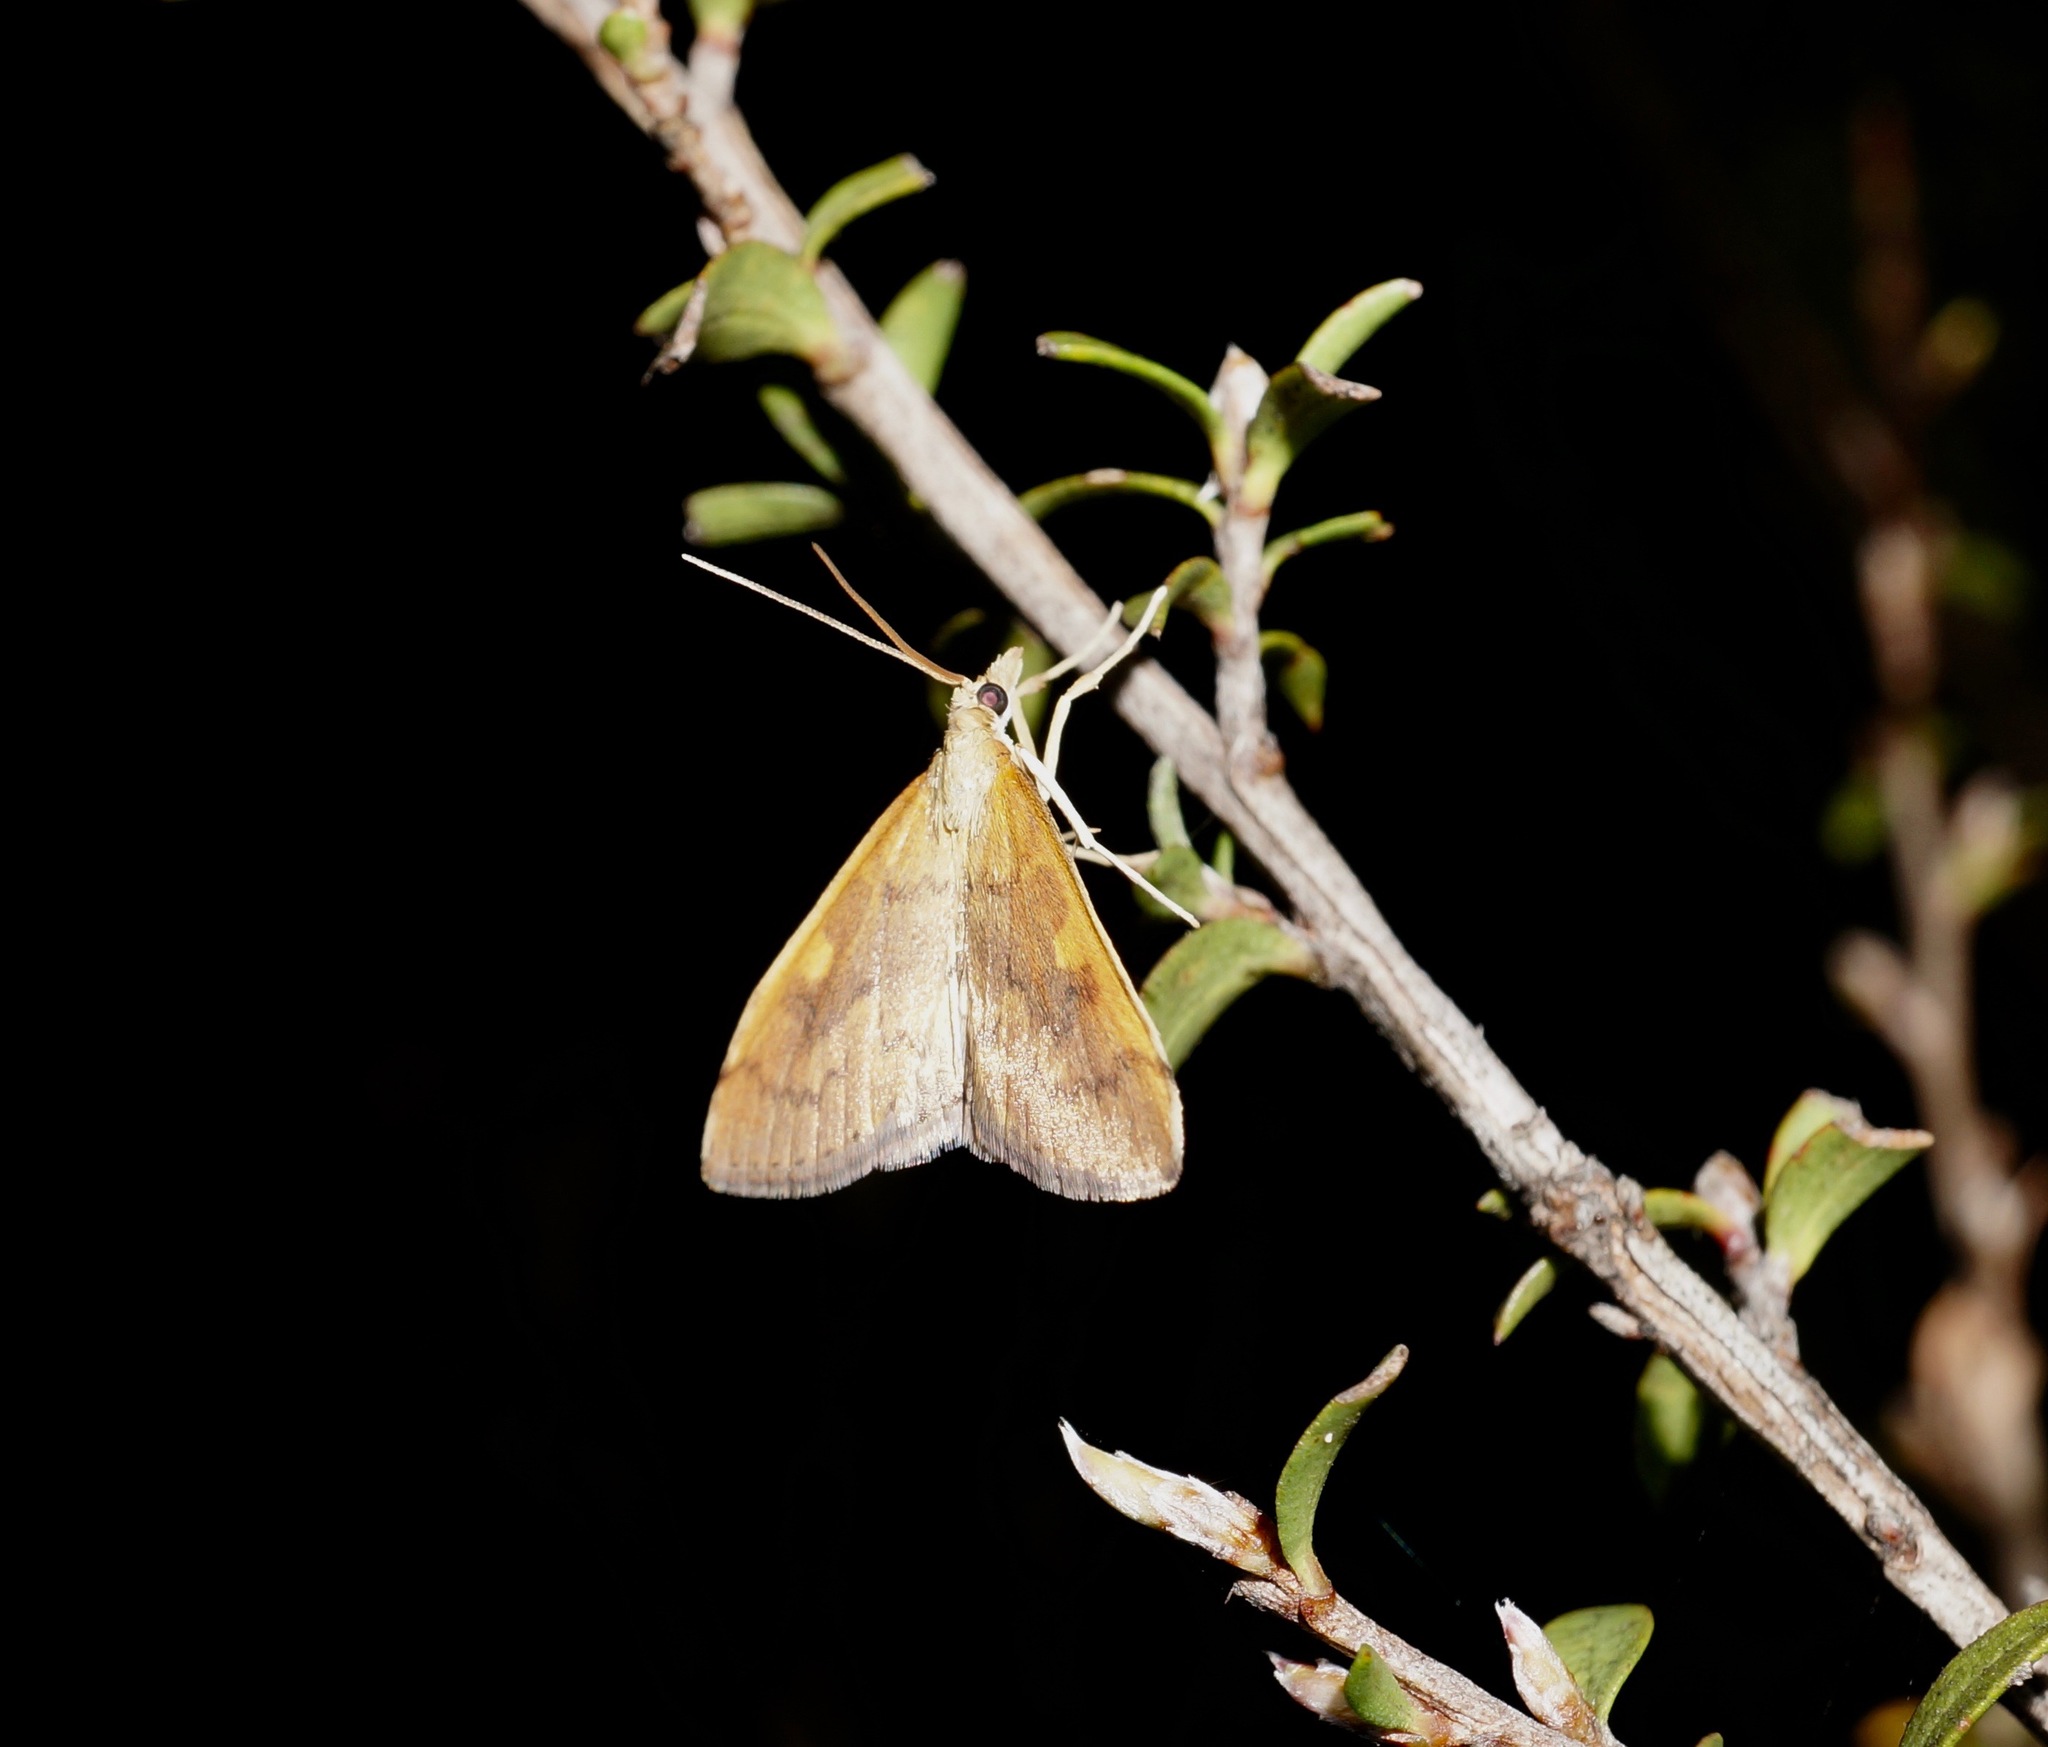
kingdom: Animalia
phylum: Arthropoda
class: Insecta
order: Lepidoptera
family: Crambidae
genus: Udea
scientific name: Udea Mnesictena flavidalis
